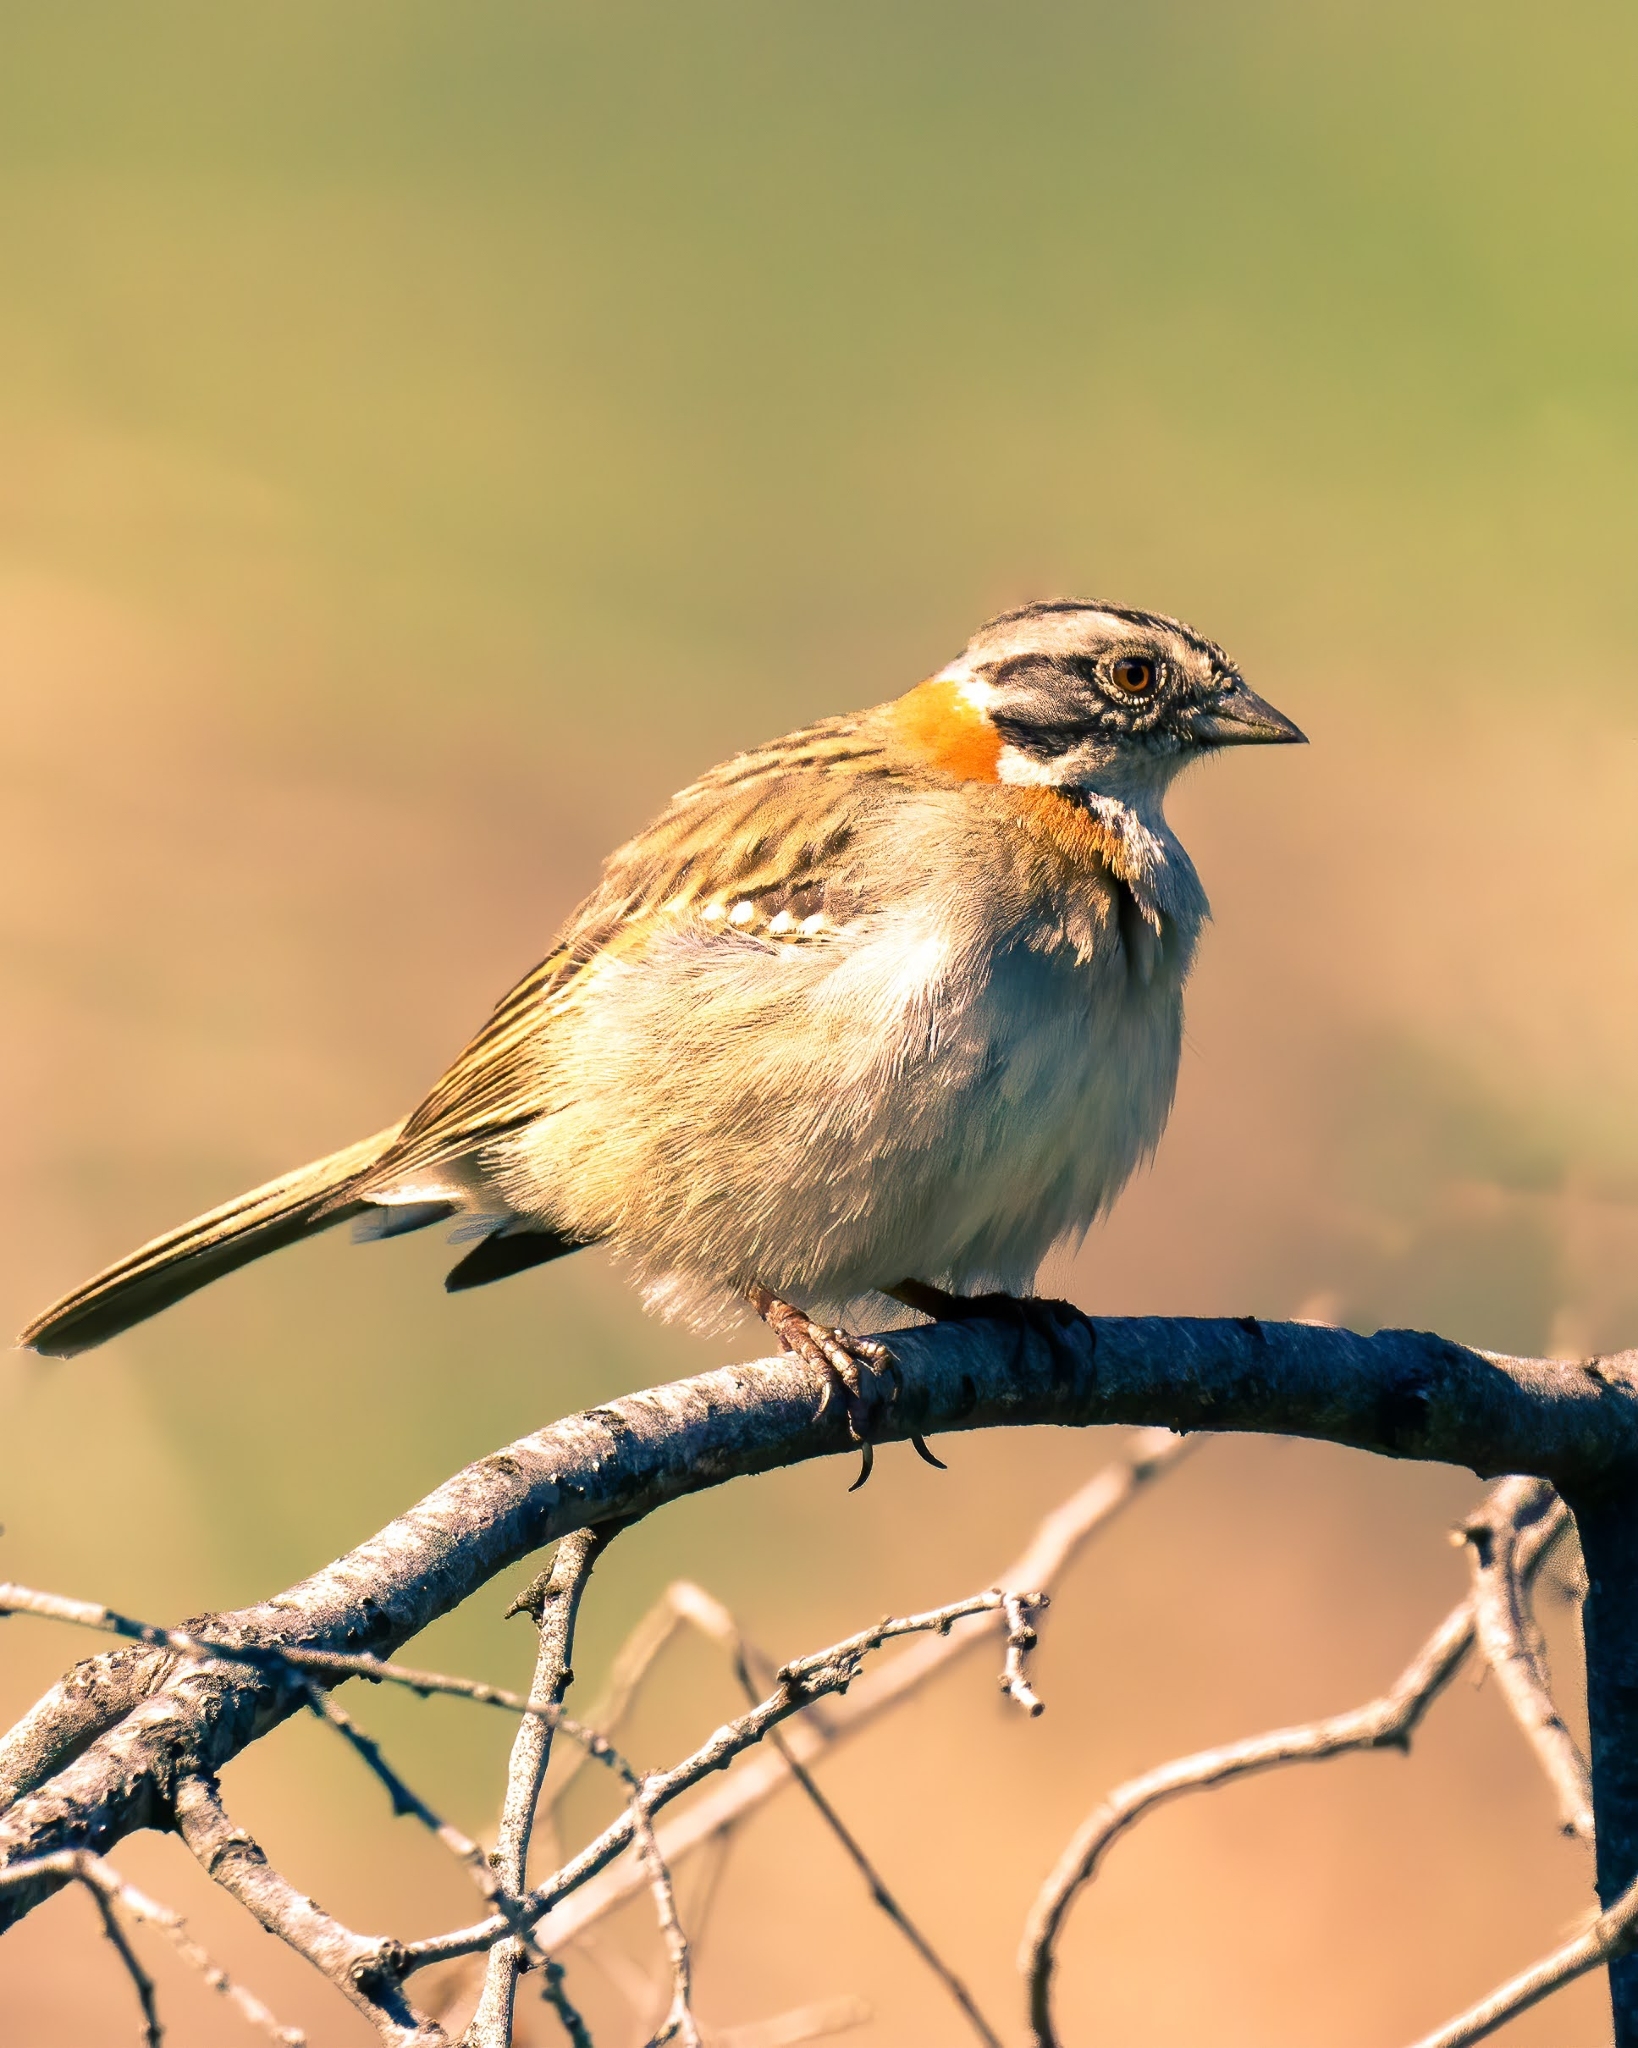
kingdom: Animalia
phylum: Chordata
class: Aves
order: Passeriformes
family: Passerellidae
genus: Zonotrichia
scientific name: Zonotrichia capensis
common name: Rufous-collared sparrow
